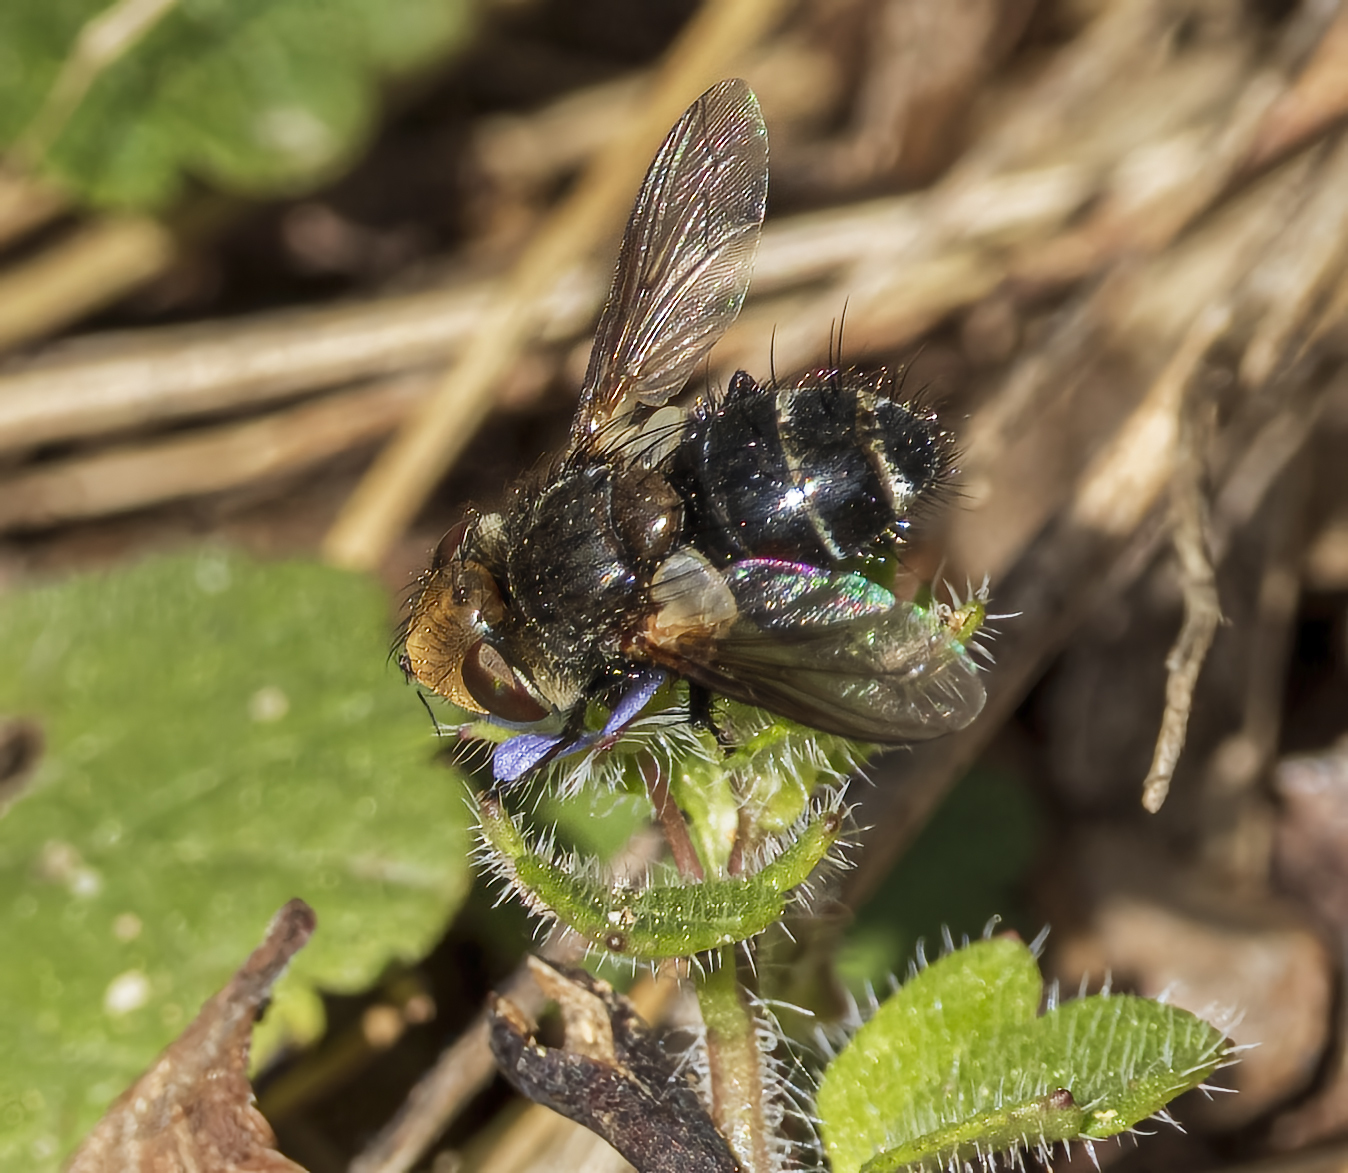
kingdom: Animalia
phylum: Arthropoda
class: Insecta
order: Diptera
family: Tachinidae
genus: Gonia
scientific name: Gonia
